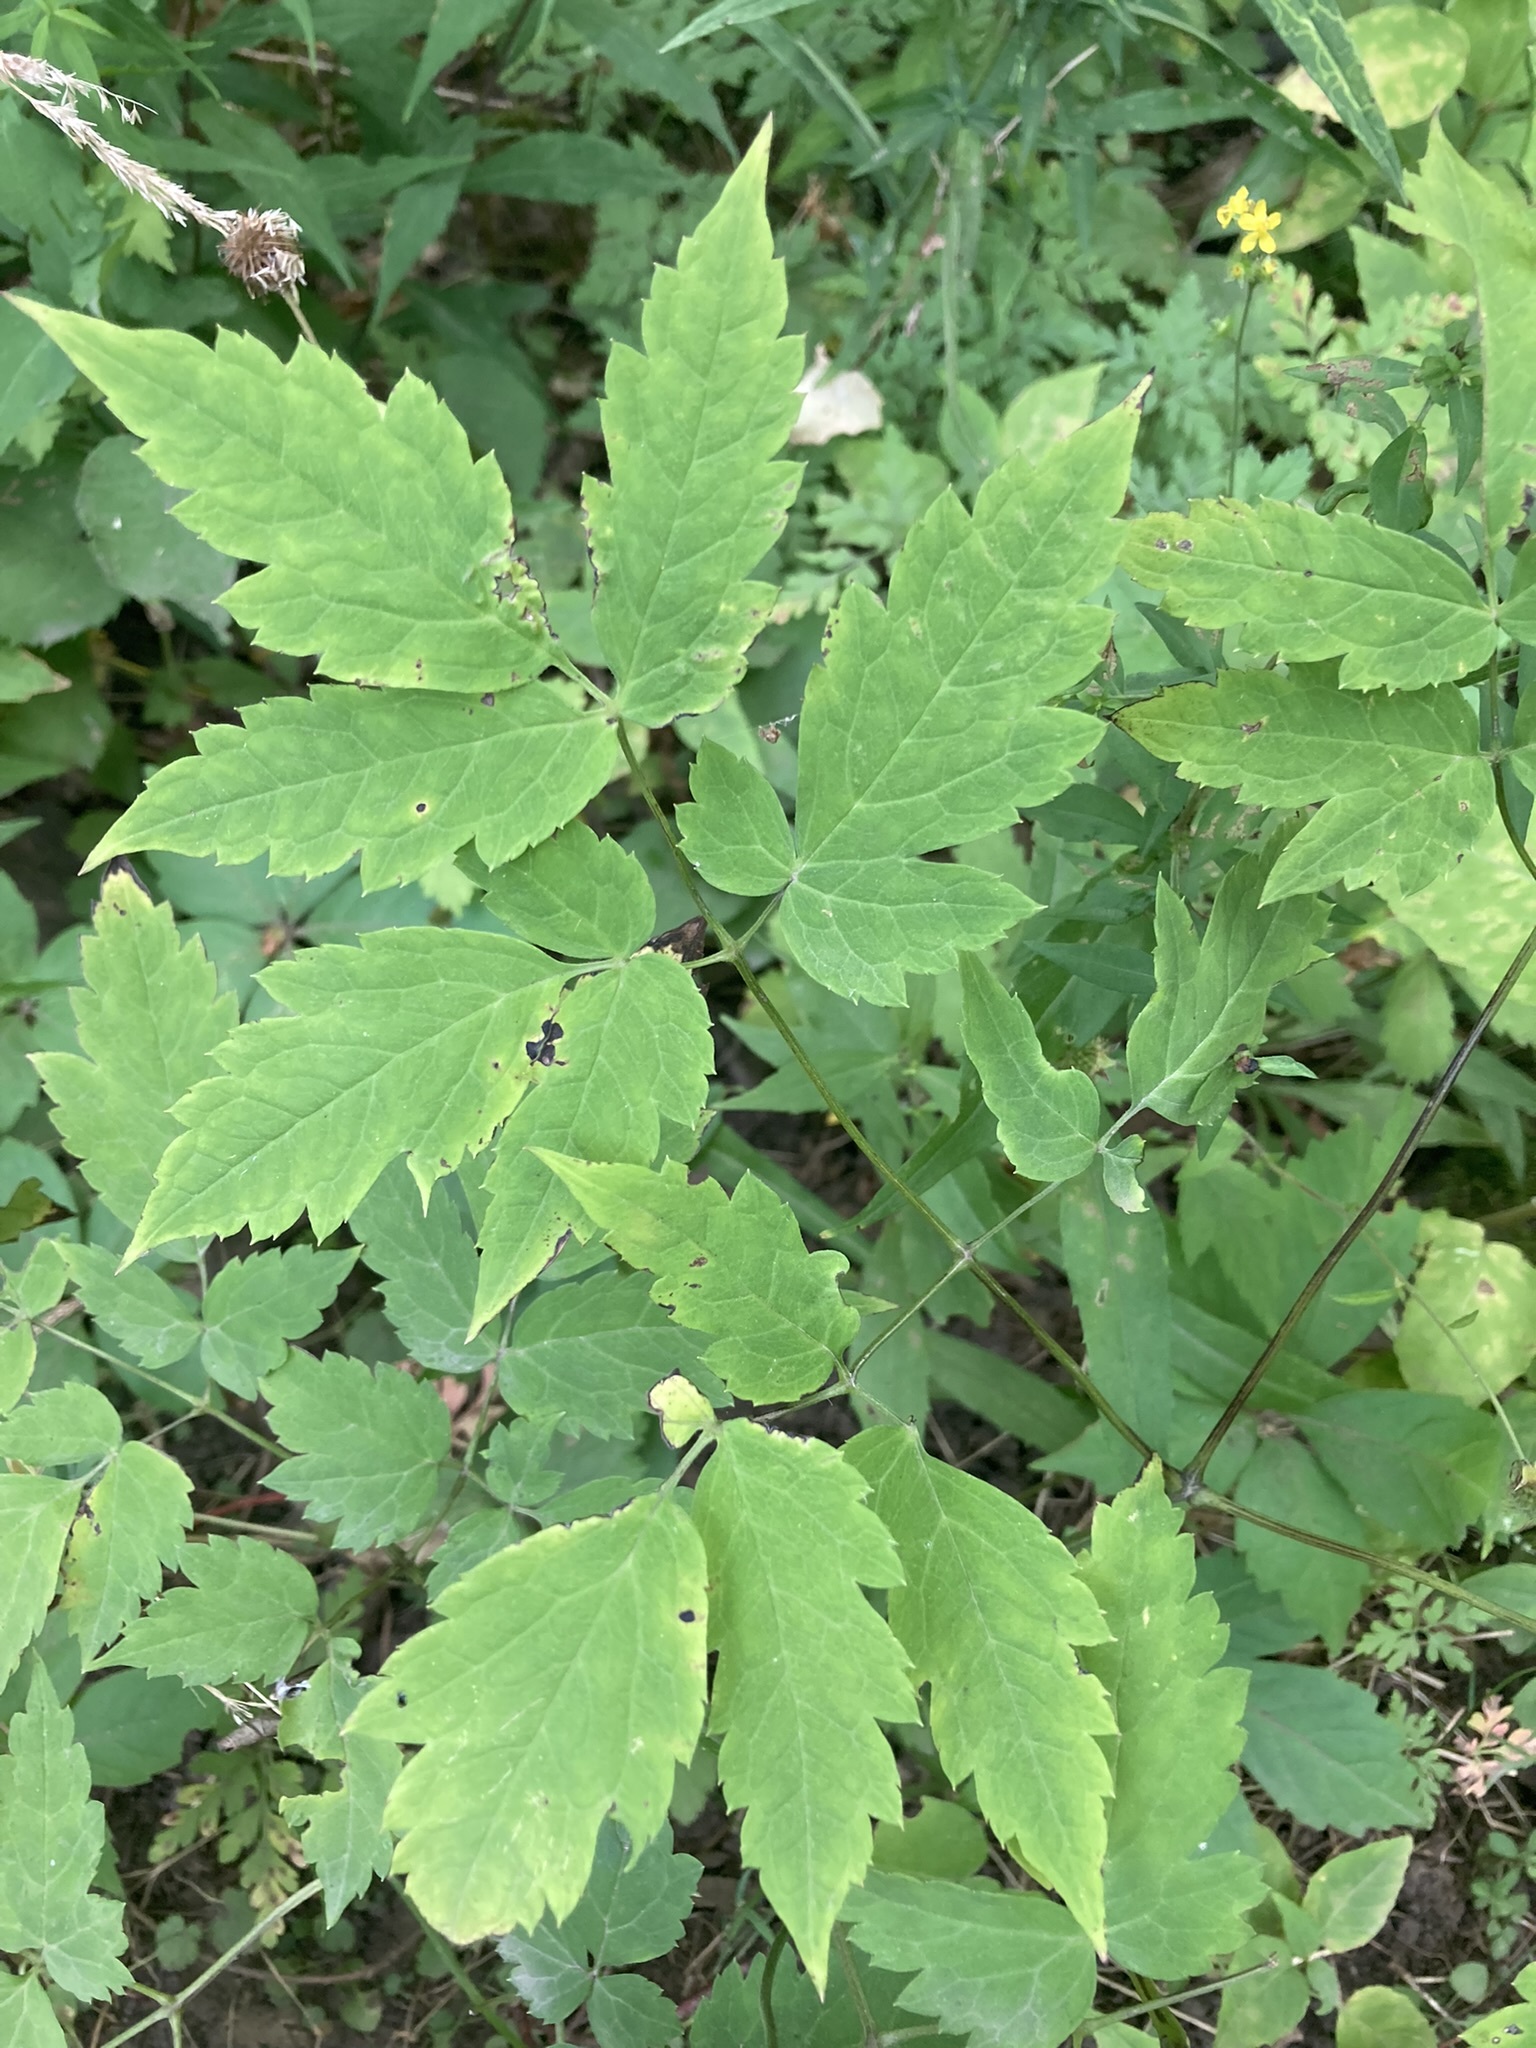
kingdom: Plantae
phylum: Tracheophyta
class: Magnoliopsida
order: Ranunculales
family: Ranunculaceae
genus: Actaea
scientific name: Actaea pachypoda
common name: Doll's-eyes
